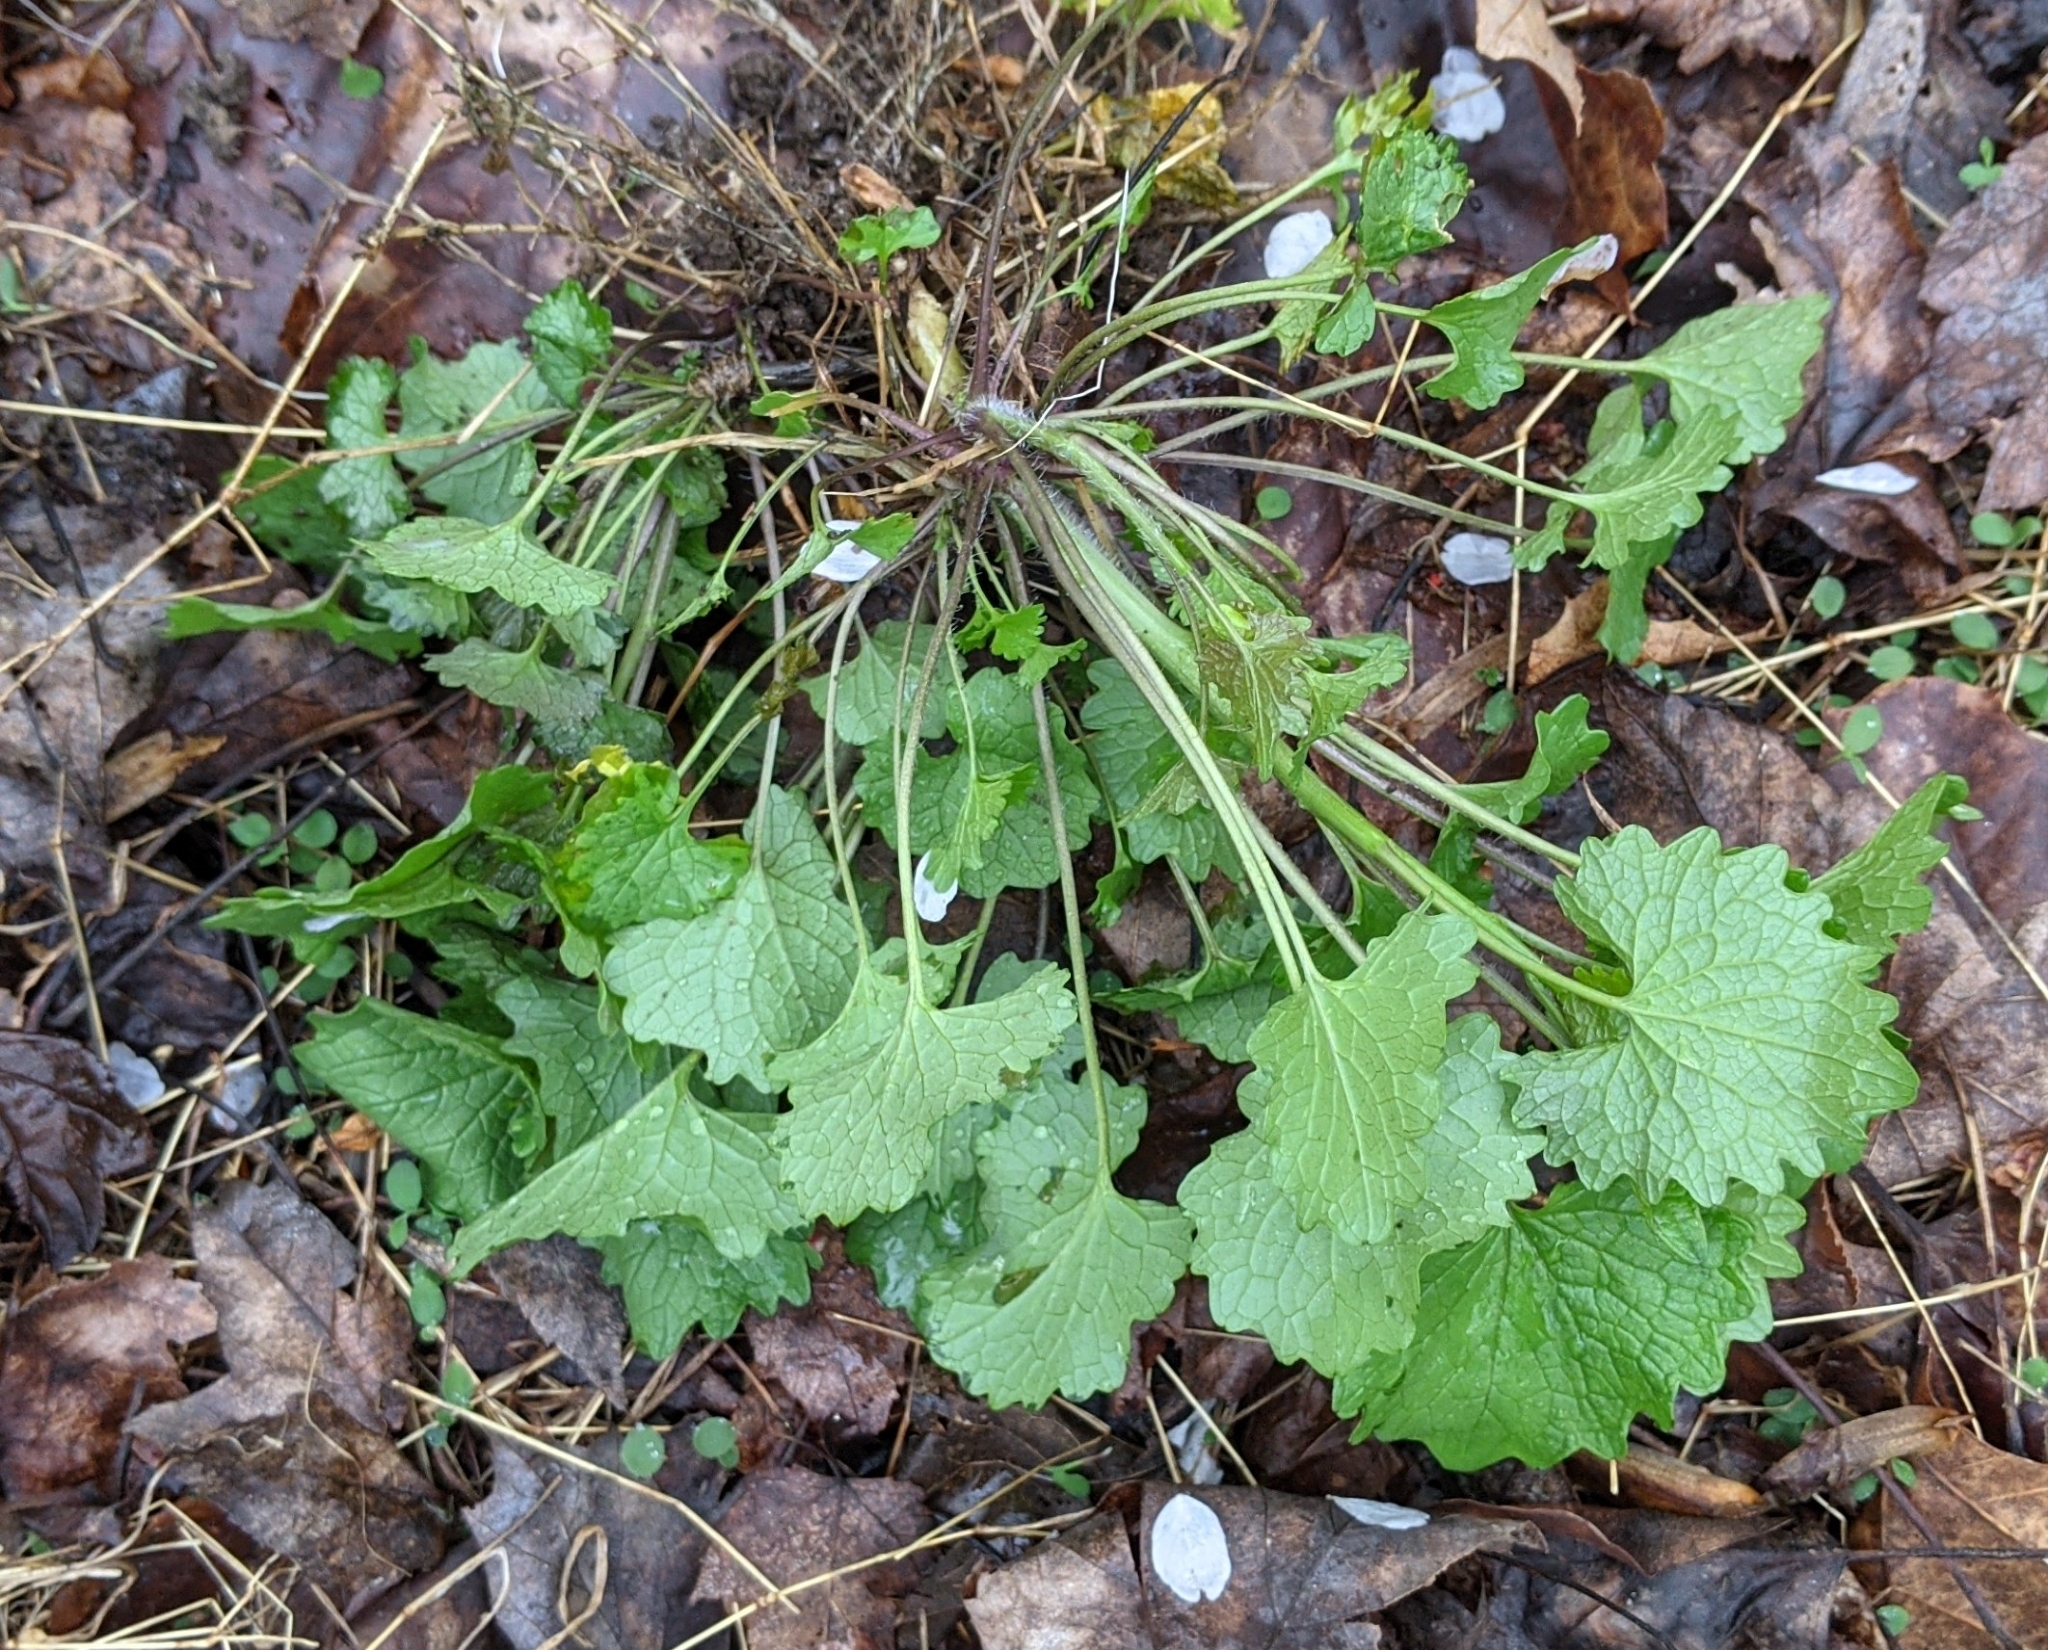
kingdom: Plantae
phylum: Tracheophyta
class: Magnoliopsida
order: Brassicales
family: Brassicaceae
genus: Alliaria
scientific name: Alliaria petiolata
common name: Garlic mustard
